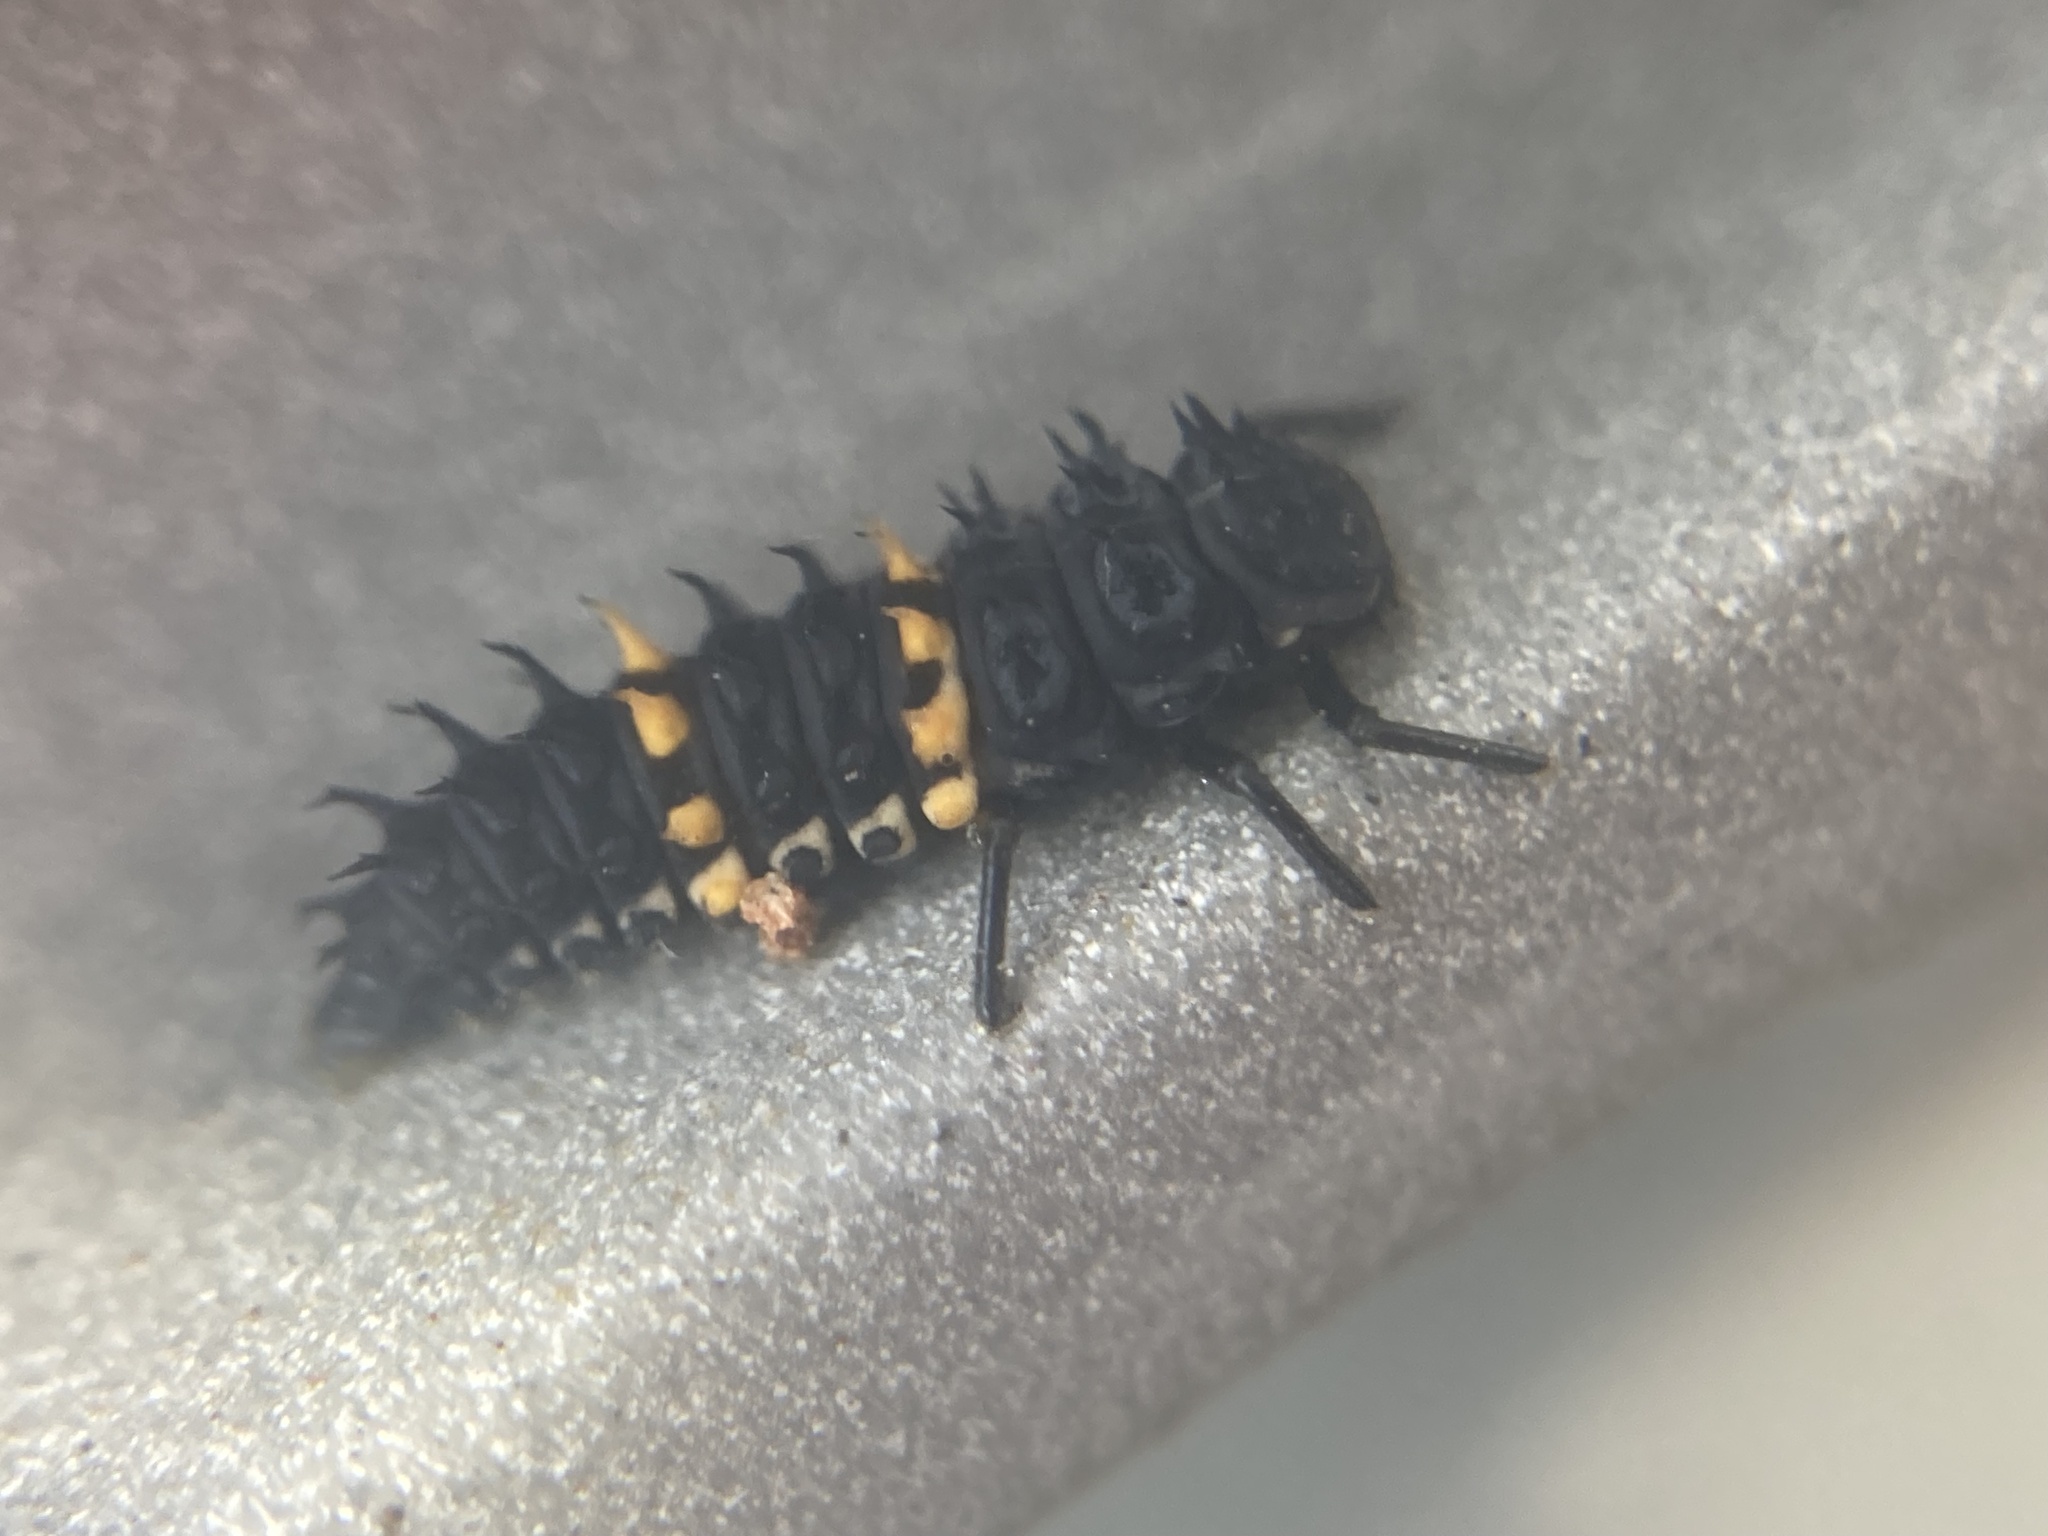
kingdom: Animalia
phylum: Arthropoda
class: Insecta
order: Coleoptera
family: Coccinellidae
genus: Harmonia
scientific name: Harmonia conformis
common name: Common spotted ladybird beetle
